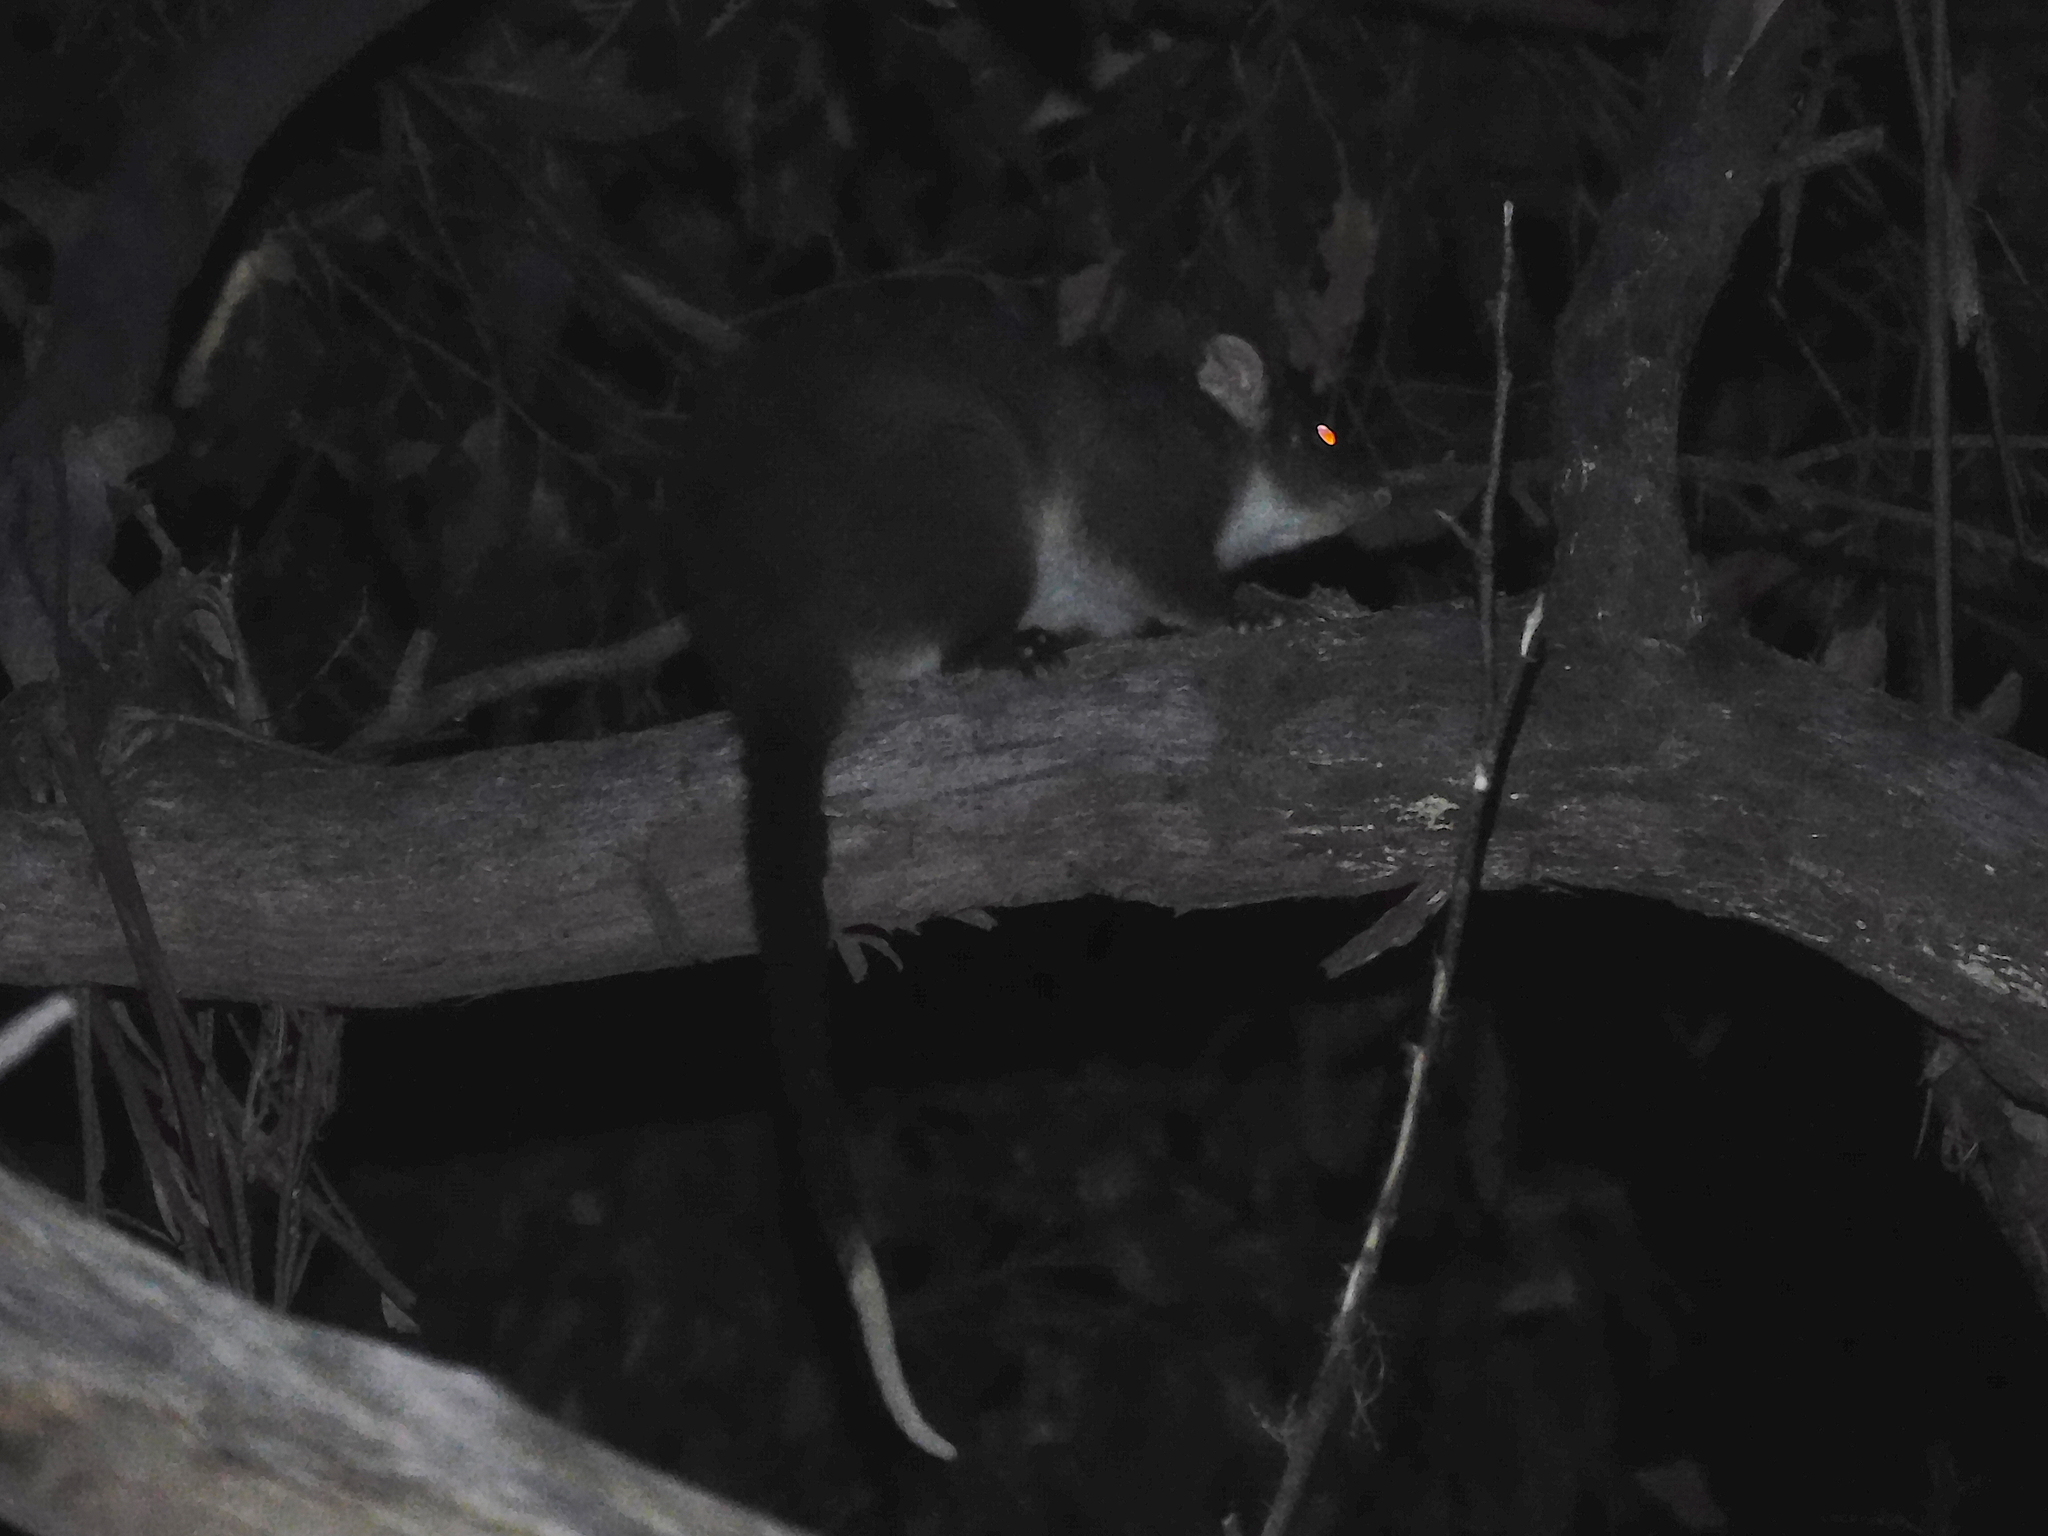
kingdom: Animalia
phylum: Chordata
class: Mammalia
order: Diprotodontia
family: Pseudocheiridae
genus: Pseudocheirus
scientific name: Pseudocheirus peregrinus
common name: Common ringtail possum
